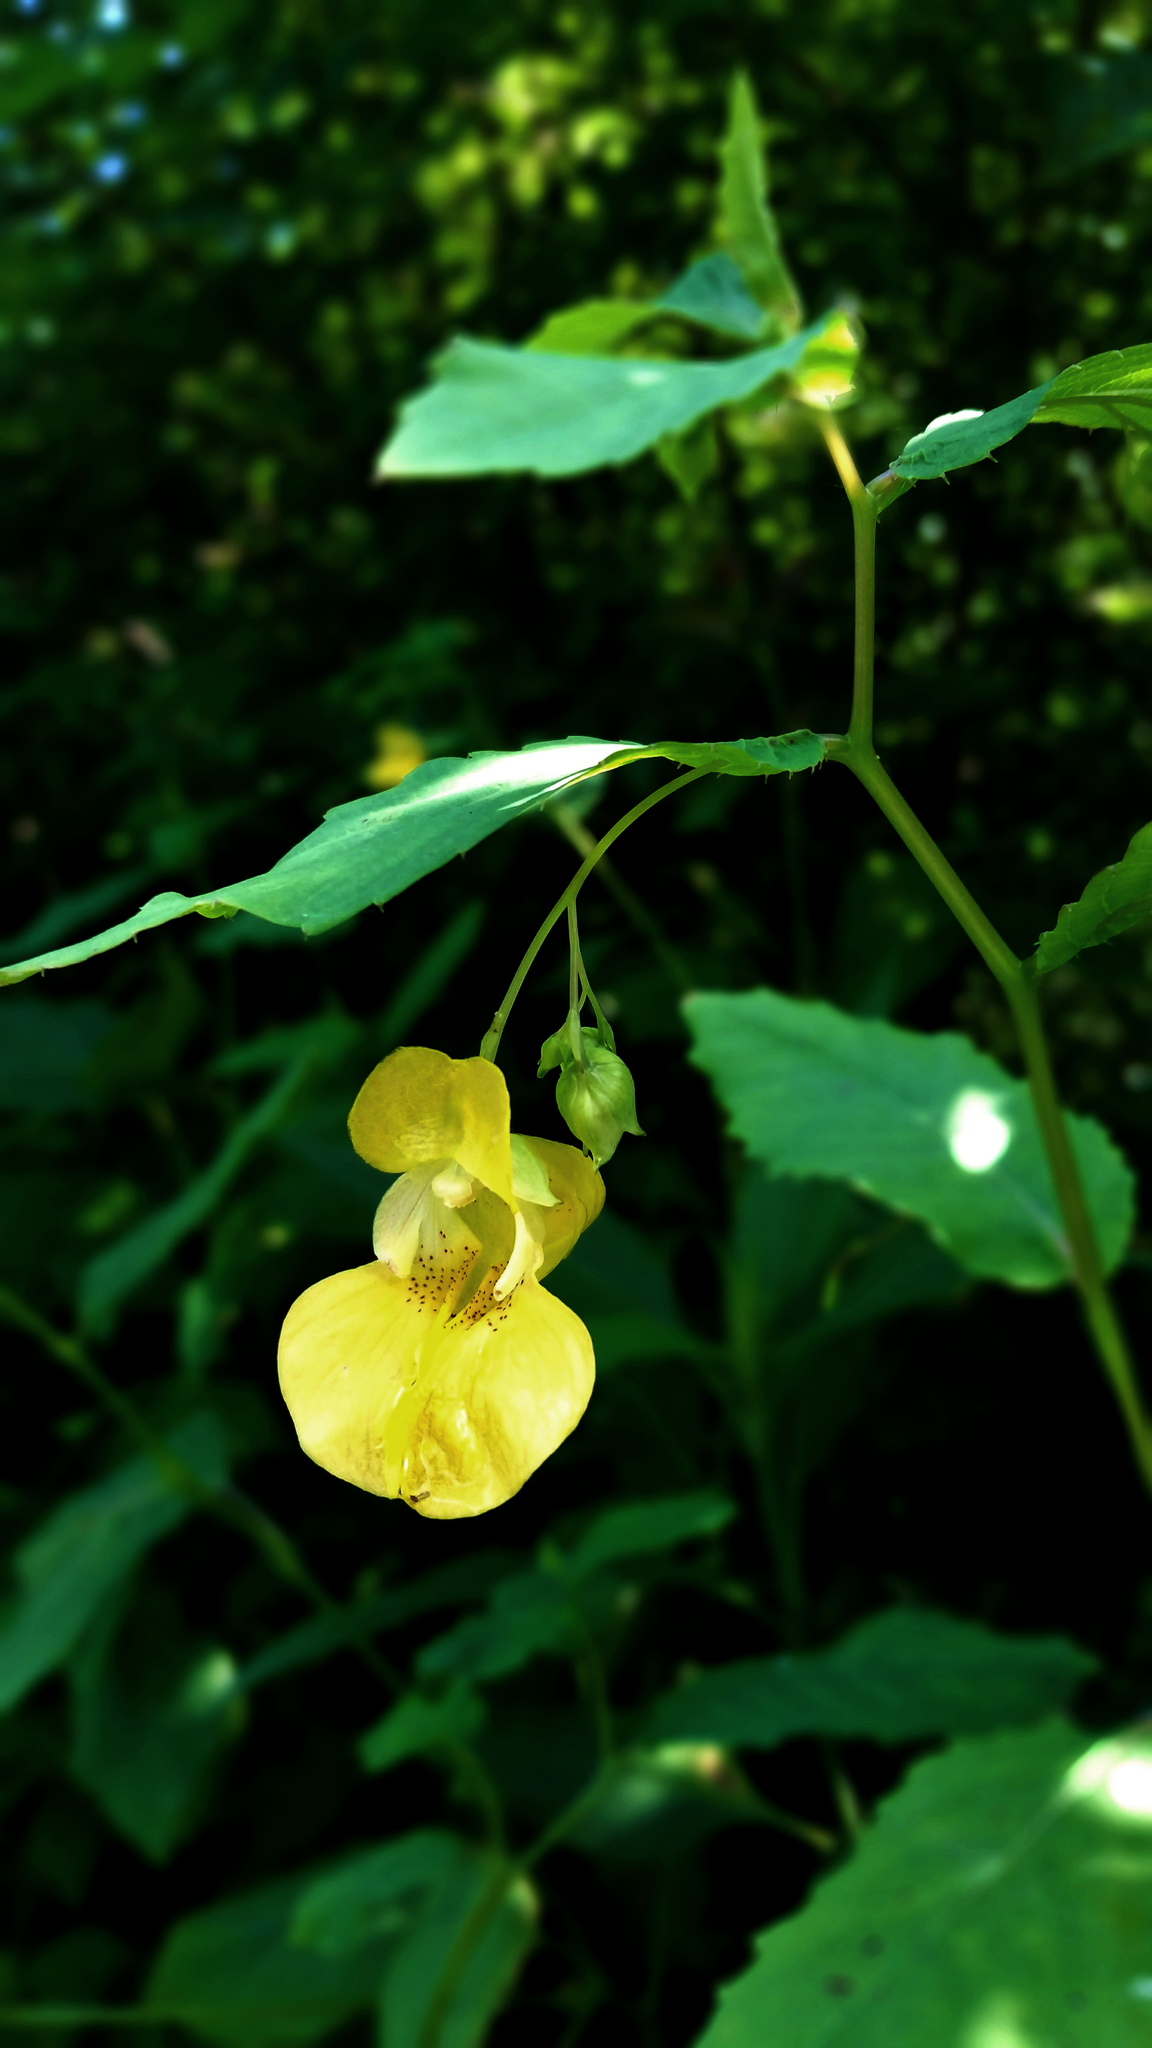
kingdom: Plantae
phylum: Tracheophyta
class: Magnoliopsida
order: Ericales
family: Balsaminaceae
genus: Impatiens
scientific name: Impatiens pallida
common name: Pale snapweed
